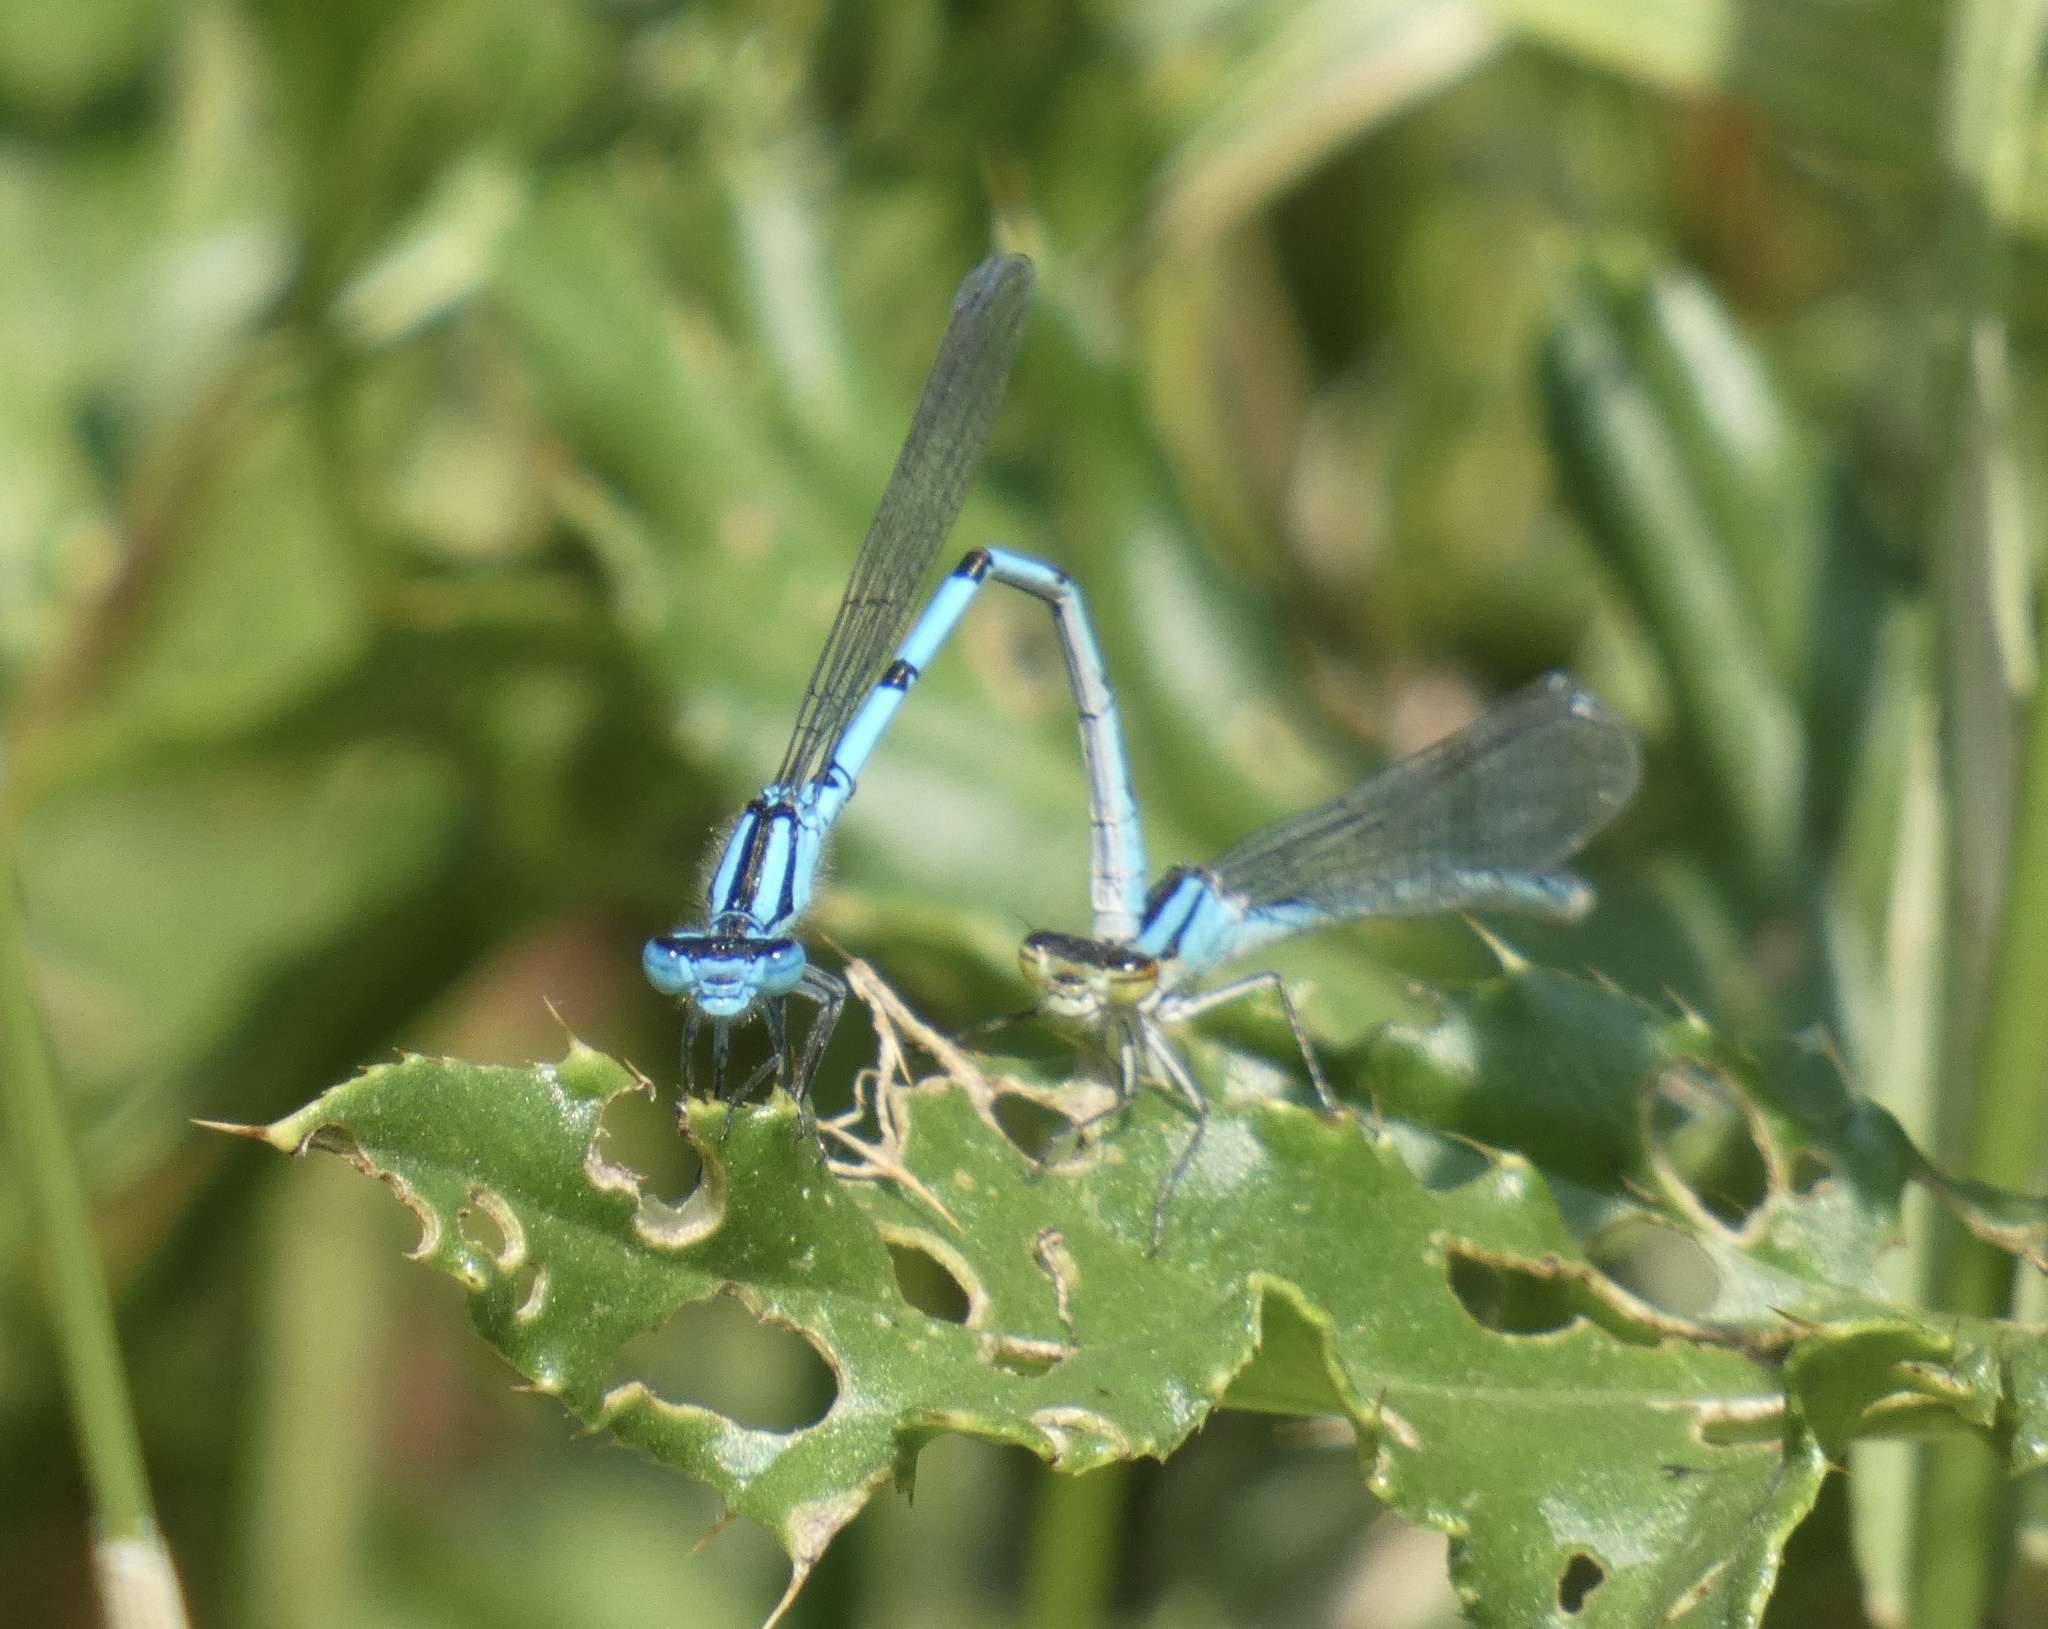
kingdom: Animalia
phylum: Arthropoda
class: Insecta
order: Odonata
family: Coenagrionidae
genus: Enallagma
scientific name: Enallagma cyathigerum
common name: Common blue damselfly
